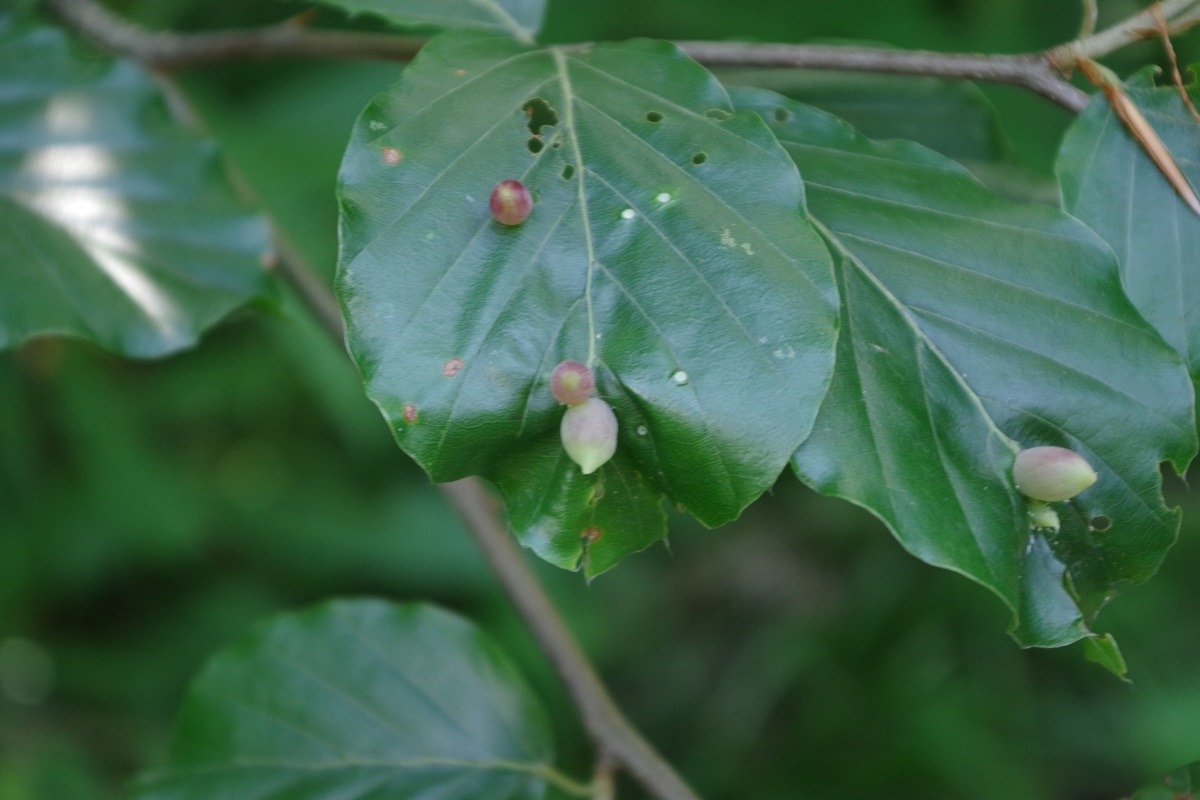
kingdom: Animalia
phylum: Arthropoda
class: Insecta
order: Diptera
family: Cecidomyiidae
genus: Mikiola
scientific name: Mikiola fagi
